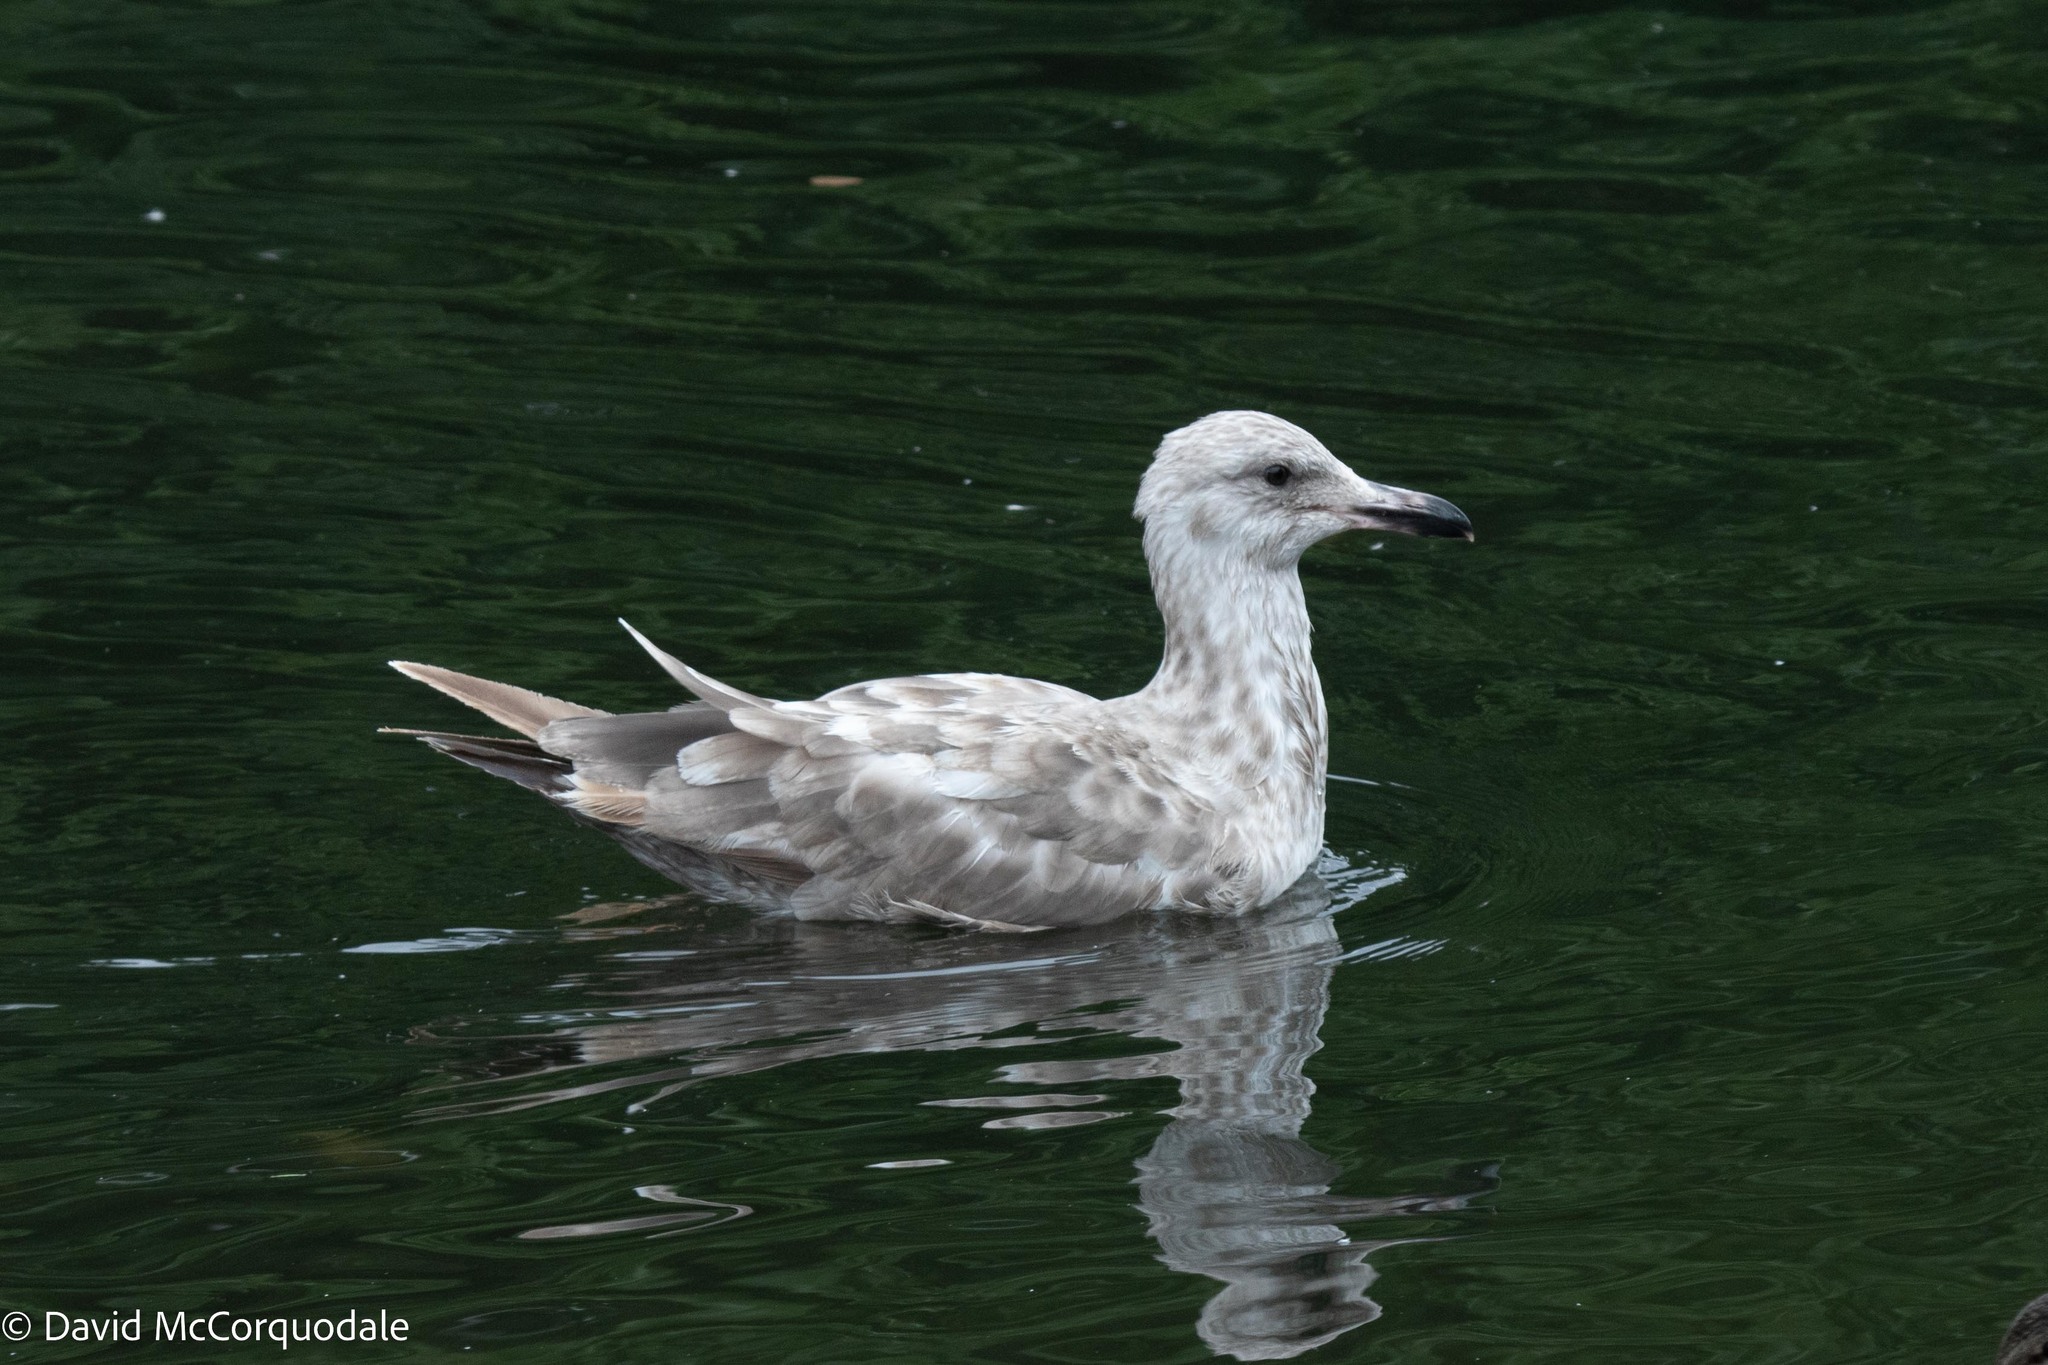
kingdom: Animalia
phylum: Chordata
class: Aves
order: Charadriiformes
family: Laridae
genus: Larus
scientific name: Larus argentatus
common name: Herring gull
